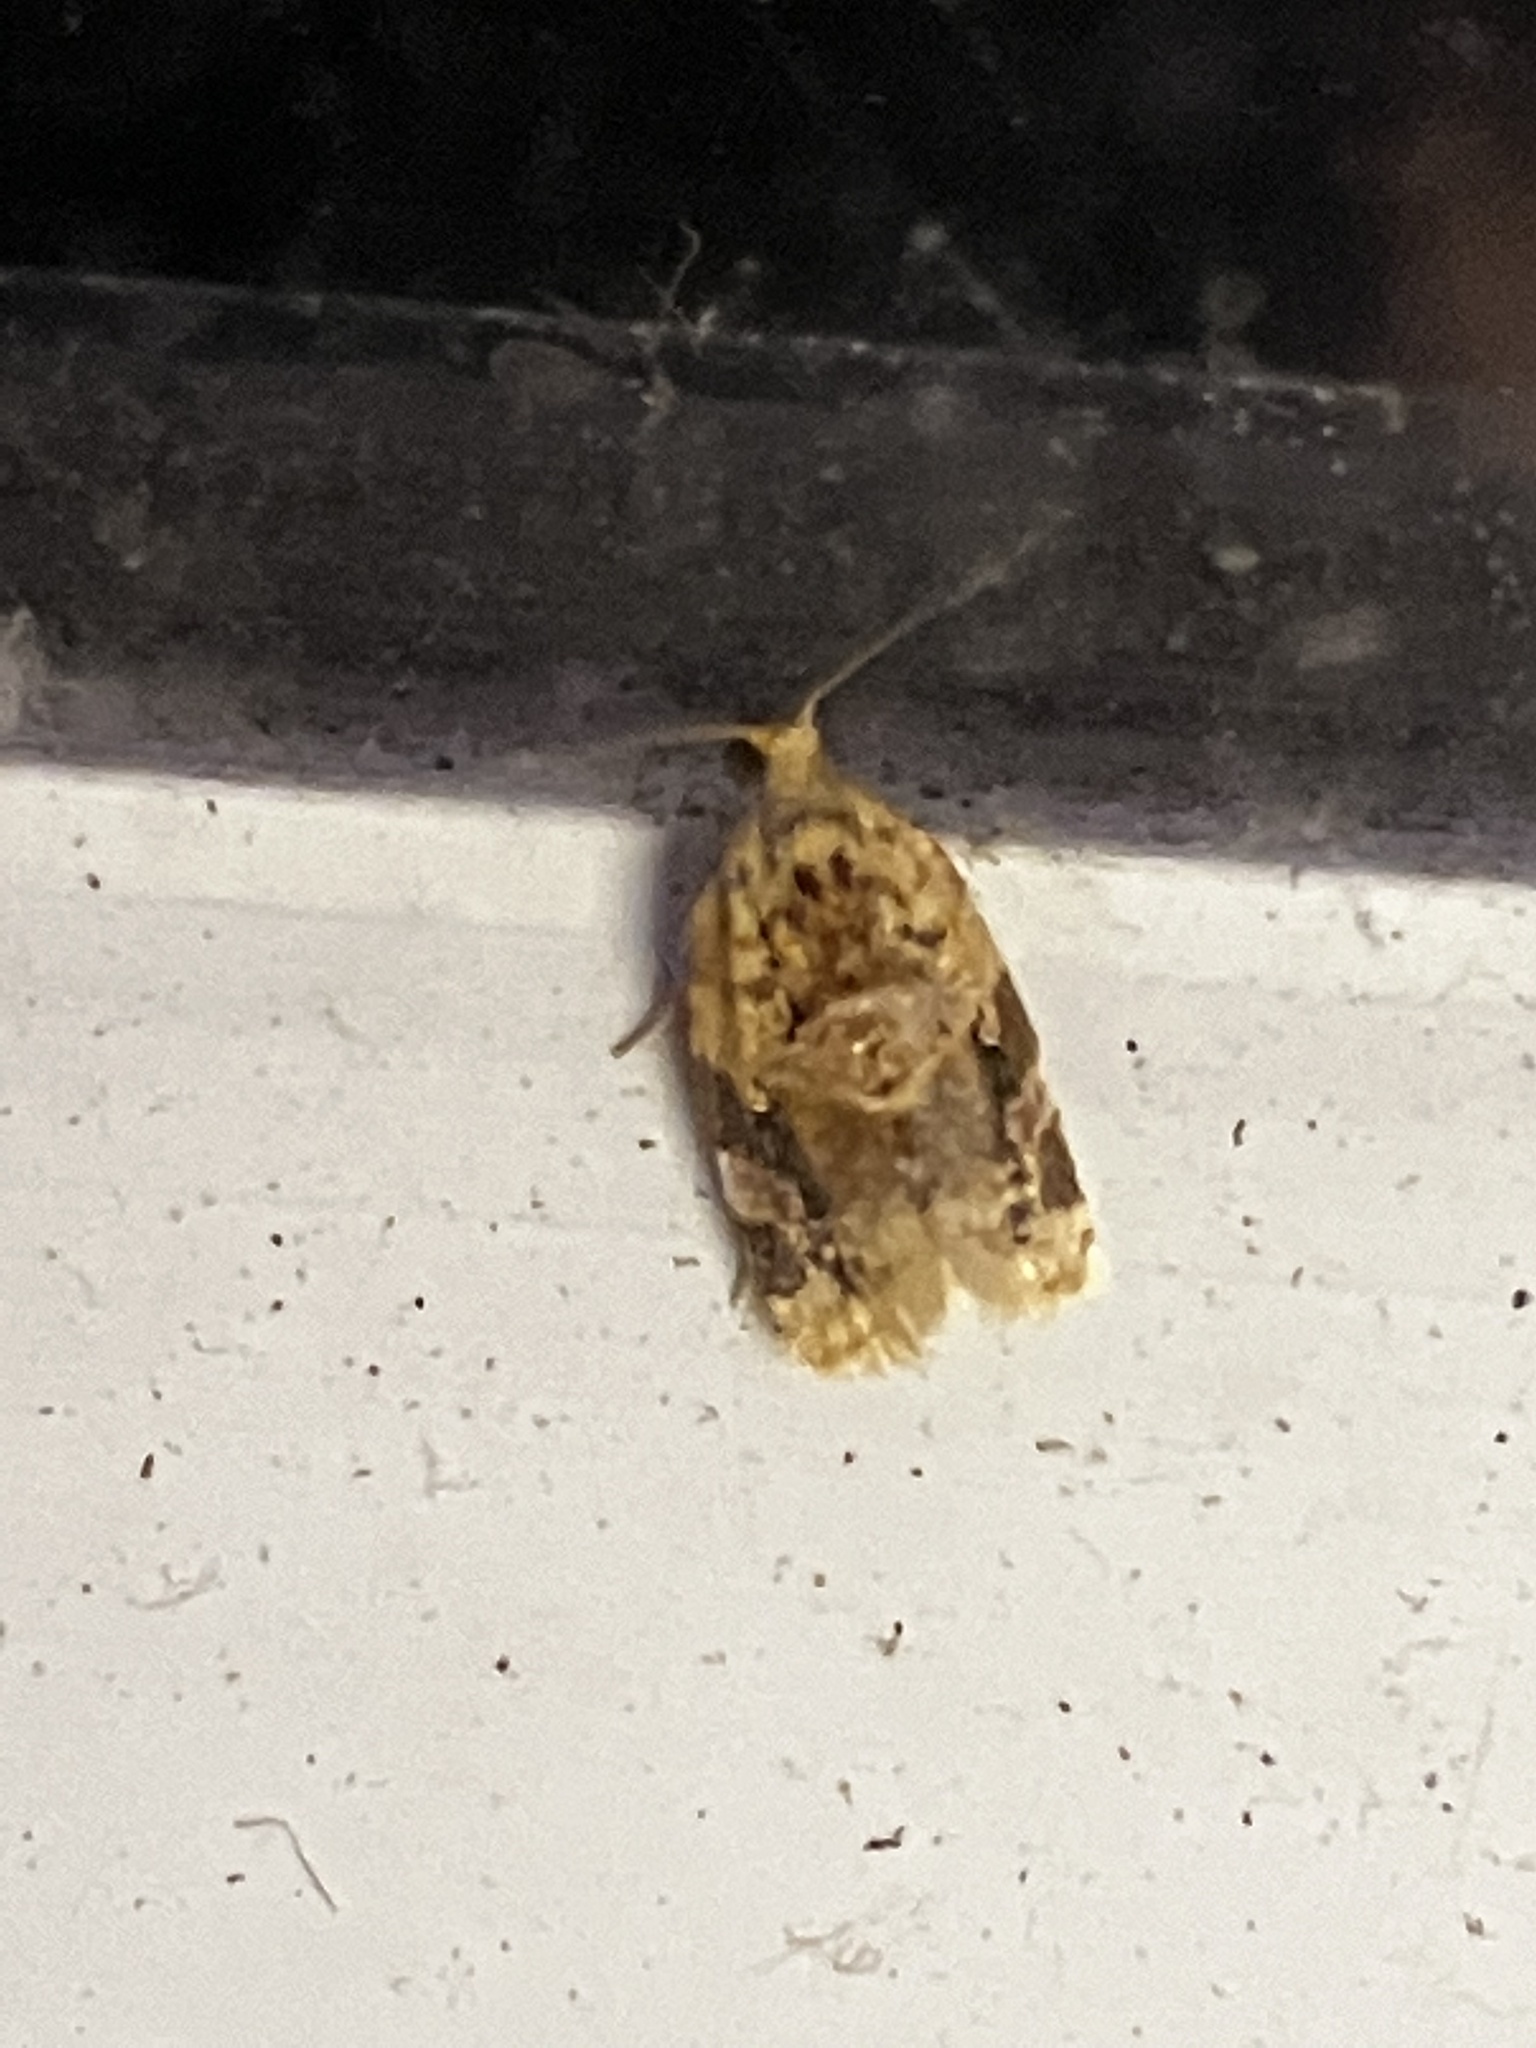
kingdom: Animalia
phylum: Arthropoda
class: Insecta
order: Lepidoptera
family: Tortricidae
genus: Argyrotaenia
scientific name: Argyrotaenia velutinana
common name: Red-banded leafroller moth
